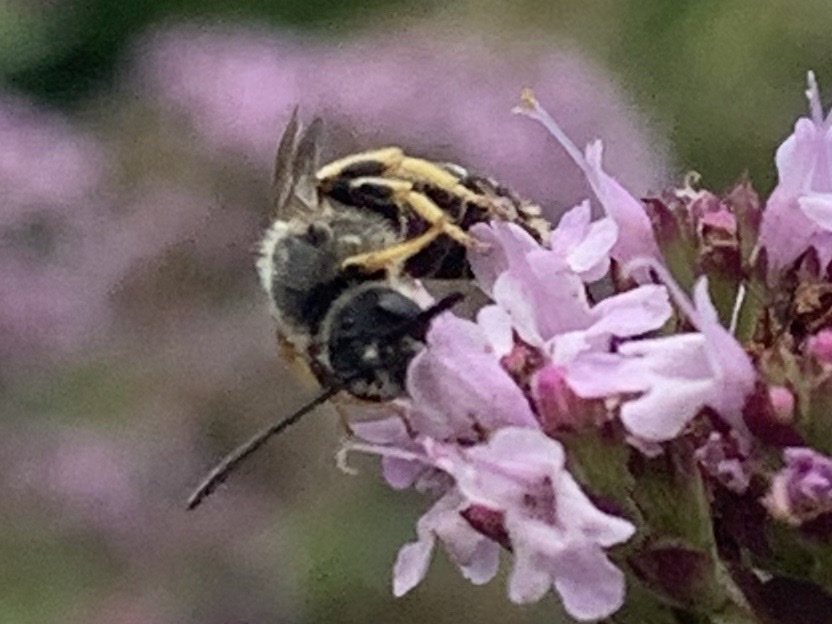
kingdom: Animalia
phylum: Arthropoda
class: Insecta
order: Hymenoptera
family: Halictidae
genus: Halictus
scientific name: Halictus rubicundus
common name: Orange-legged furrow bee
